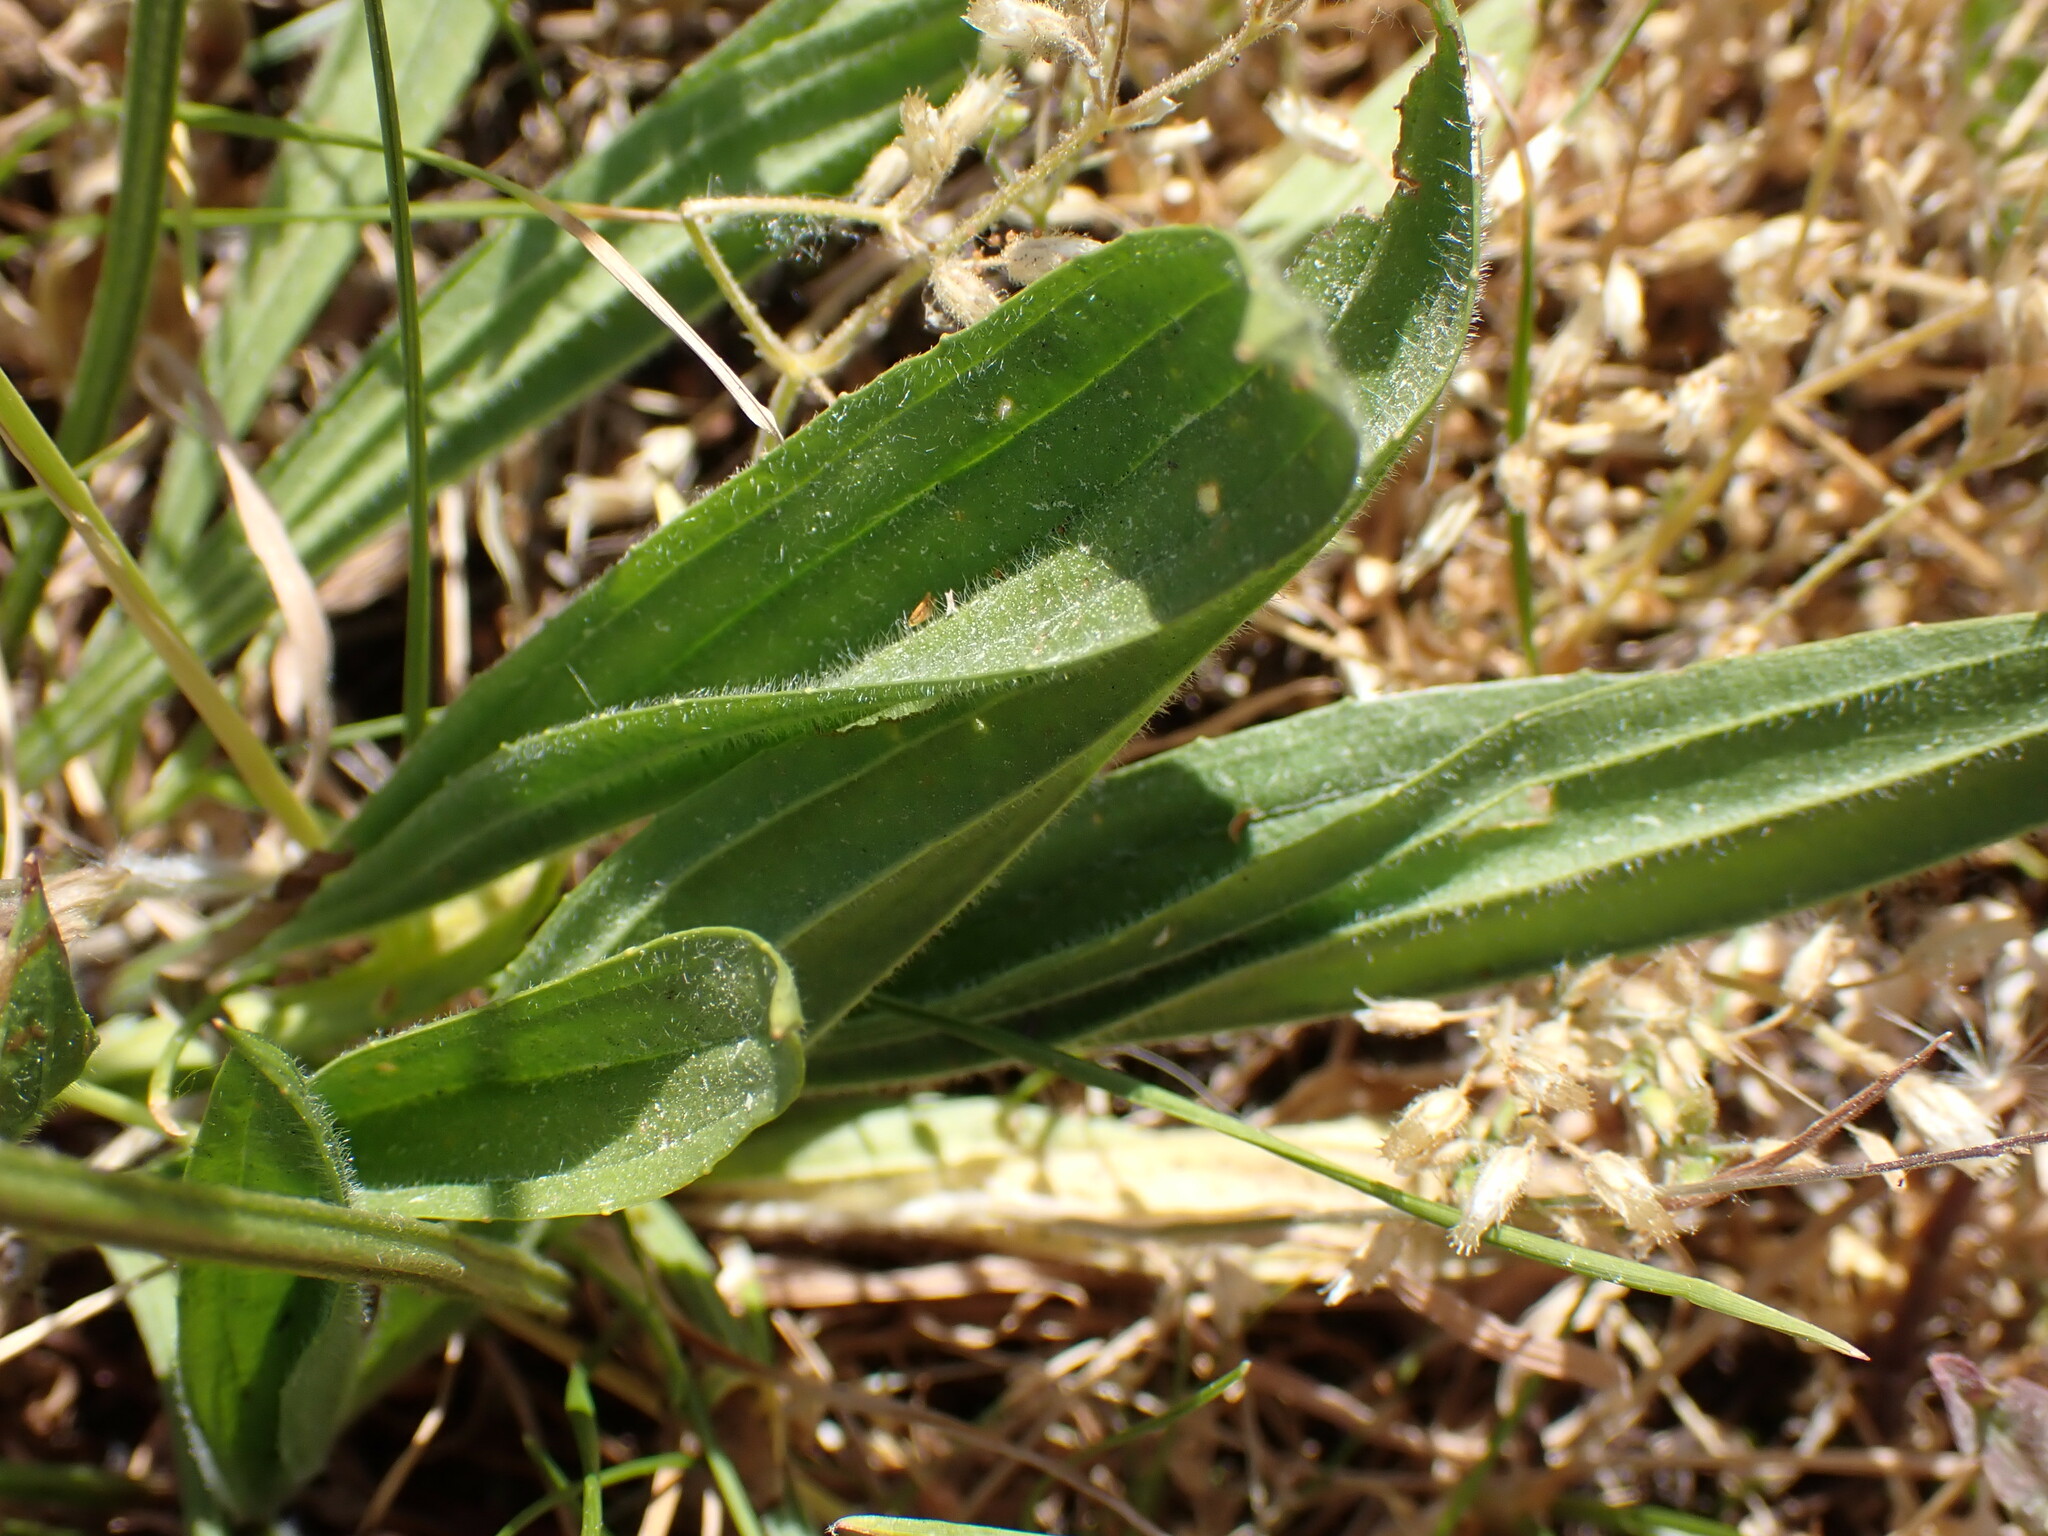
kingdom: Plantae
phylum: Tracheophyta
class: Magnoliopsida
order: Lamiales
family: Plantaginaceae
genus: Plantago
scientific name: Plantago lanceolata
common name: Ribwort plantain
